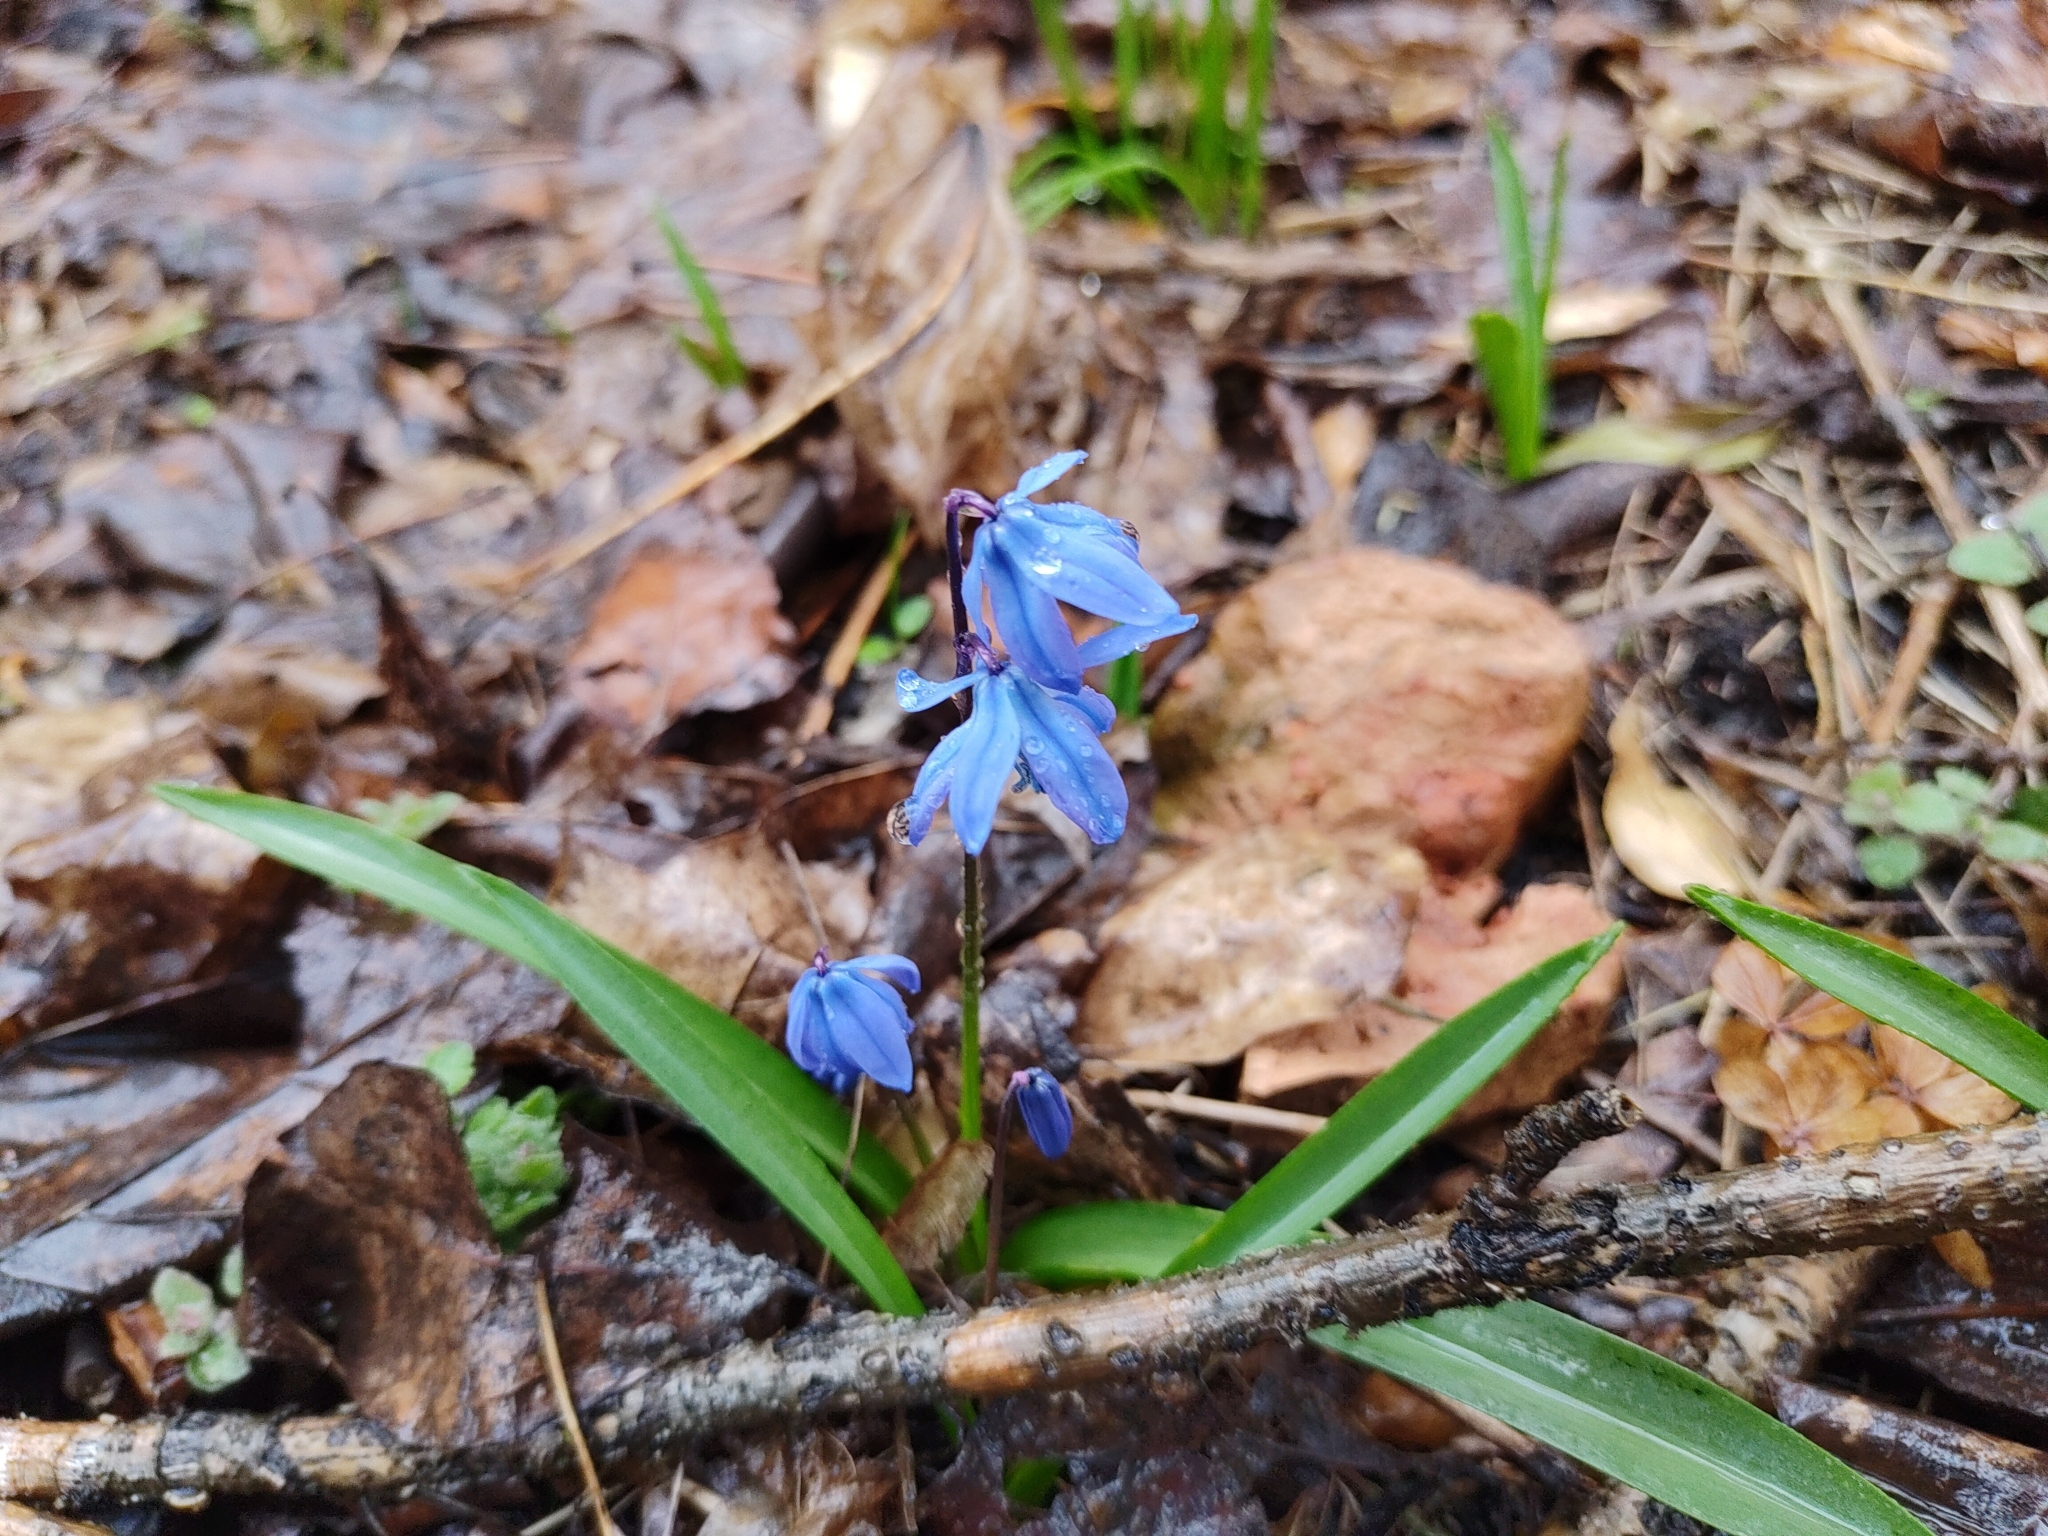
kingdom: Plantae
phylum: Tracheophyta
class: Liliopsida
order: Asparagales
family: Asparagaceae
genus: Scilla
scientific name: Scilla siberica
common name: Siberian squill
